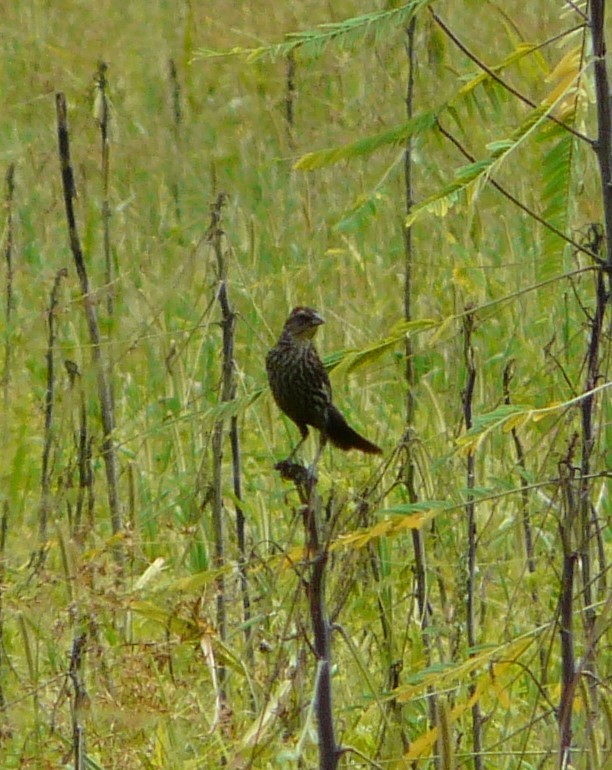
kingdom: Animalia
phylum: Chordata
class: Aves
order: Passeriformes
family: Icteridae
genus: Agelaius
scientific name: Agelaius phoeniceus
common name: Red-winged blackbird
